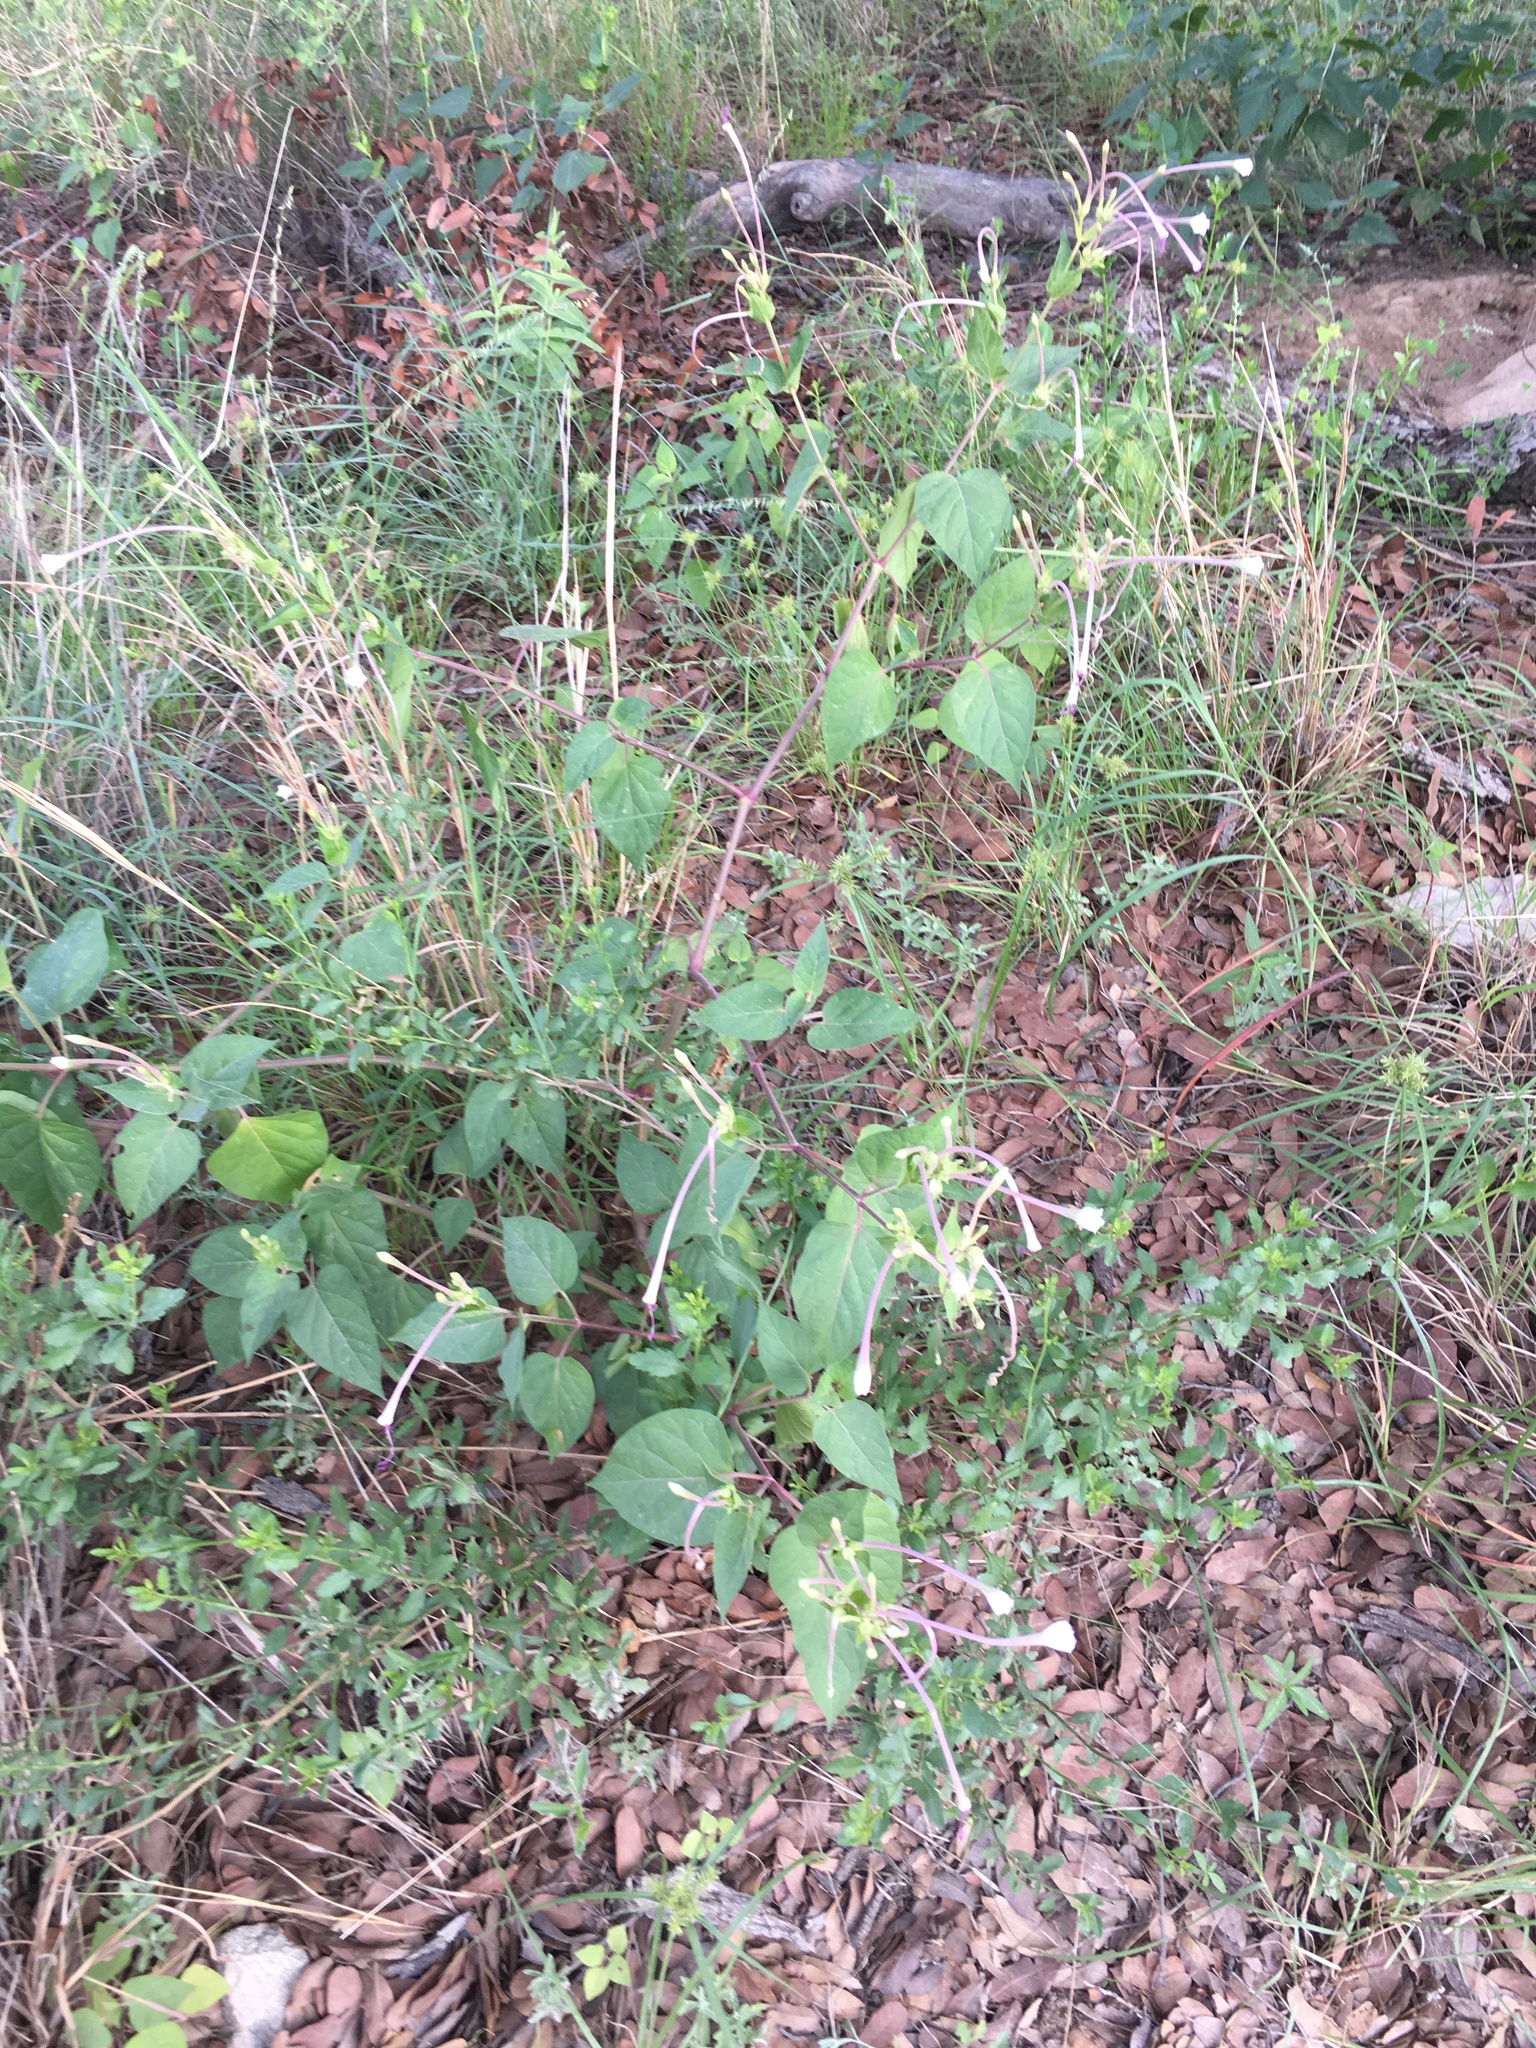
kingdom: Plantae
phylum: Tracheophyta
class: Magnoliopsida
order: Caryophyllales
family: Nyctaginaceae
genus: Mirabilis
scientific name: Mirabilis longiflora
